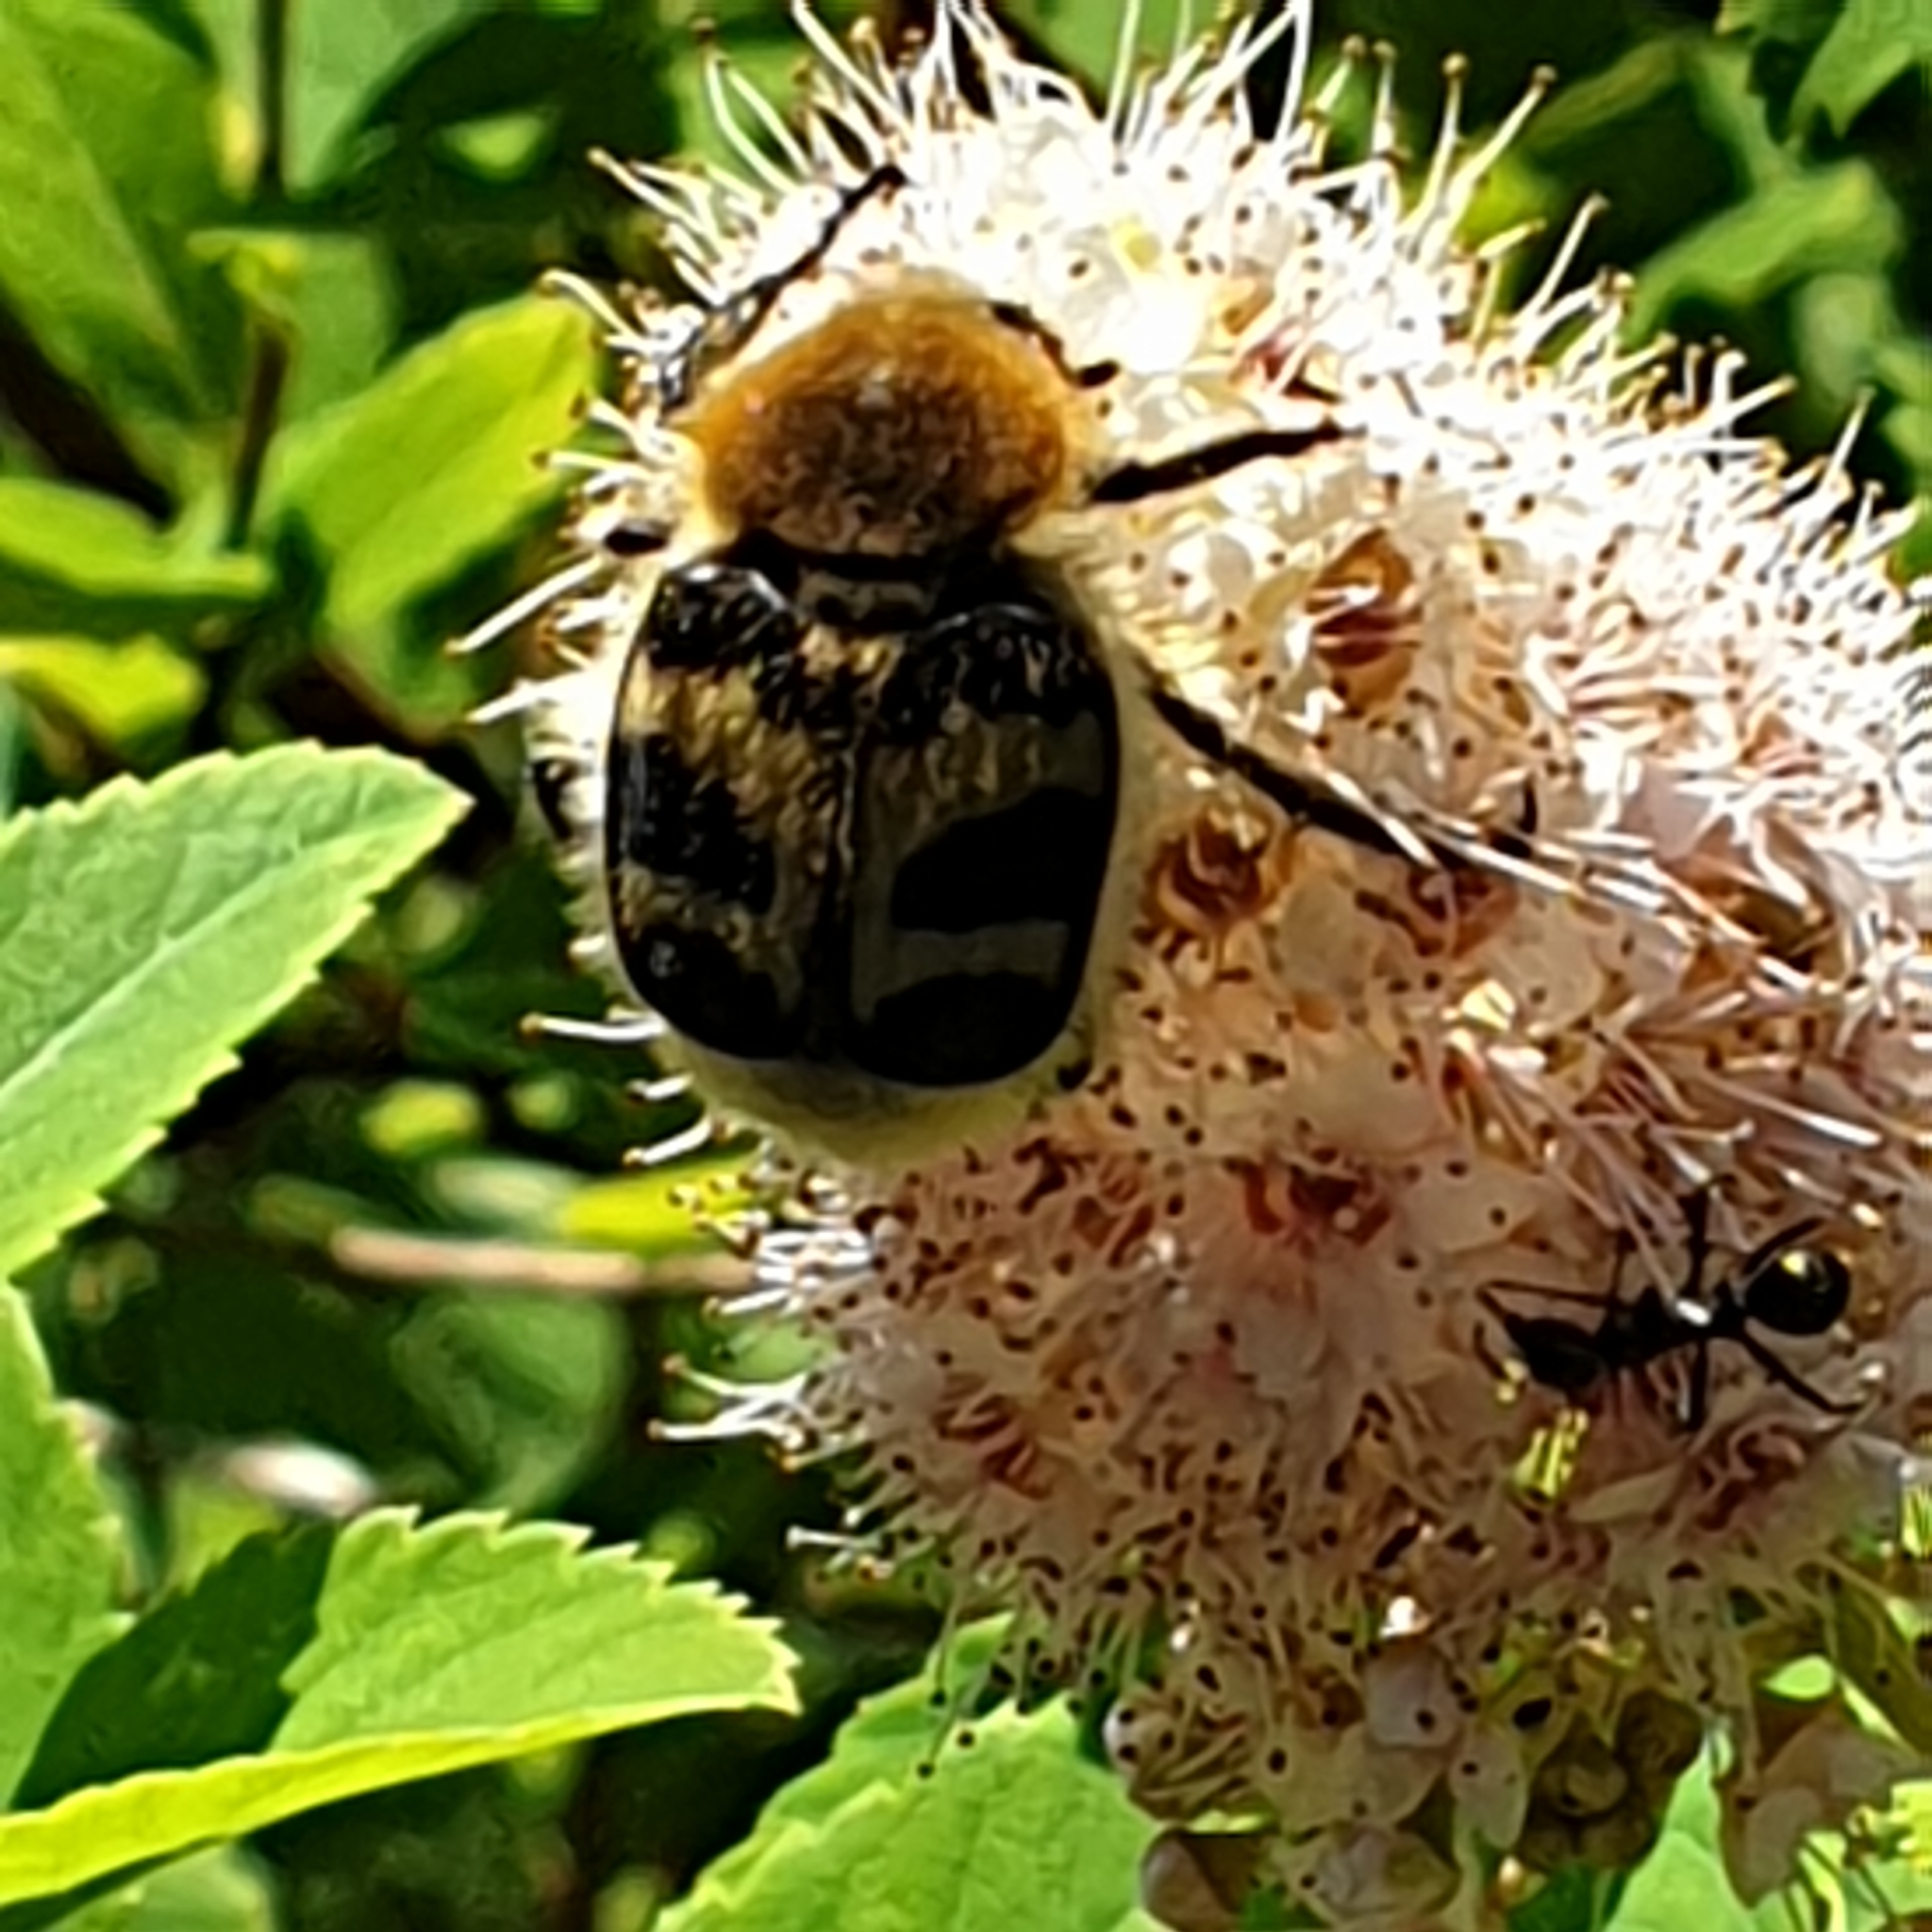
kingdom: Animalia
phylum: Arthropoda
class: Insecta
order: Coleoptera
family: Scarabaeidae
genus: Trichius
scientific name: Trichius fasciatus
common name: Bee beetle
